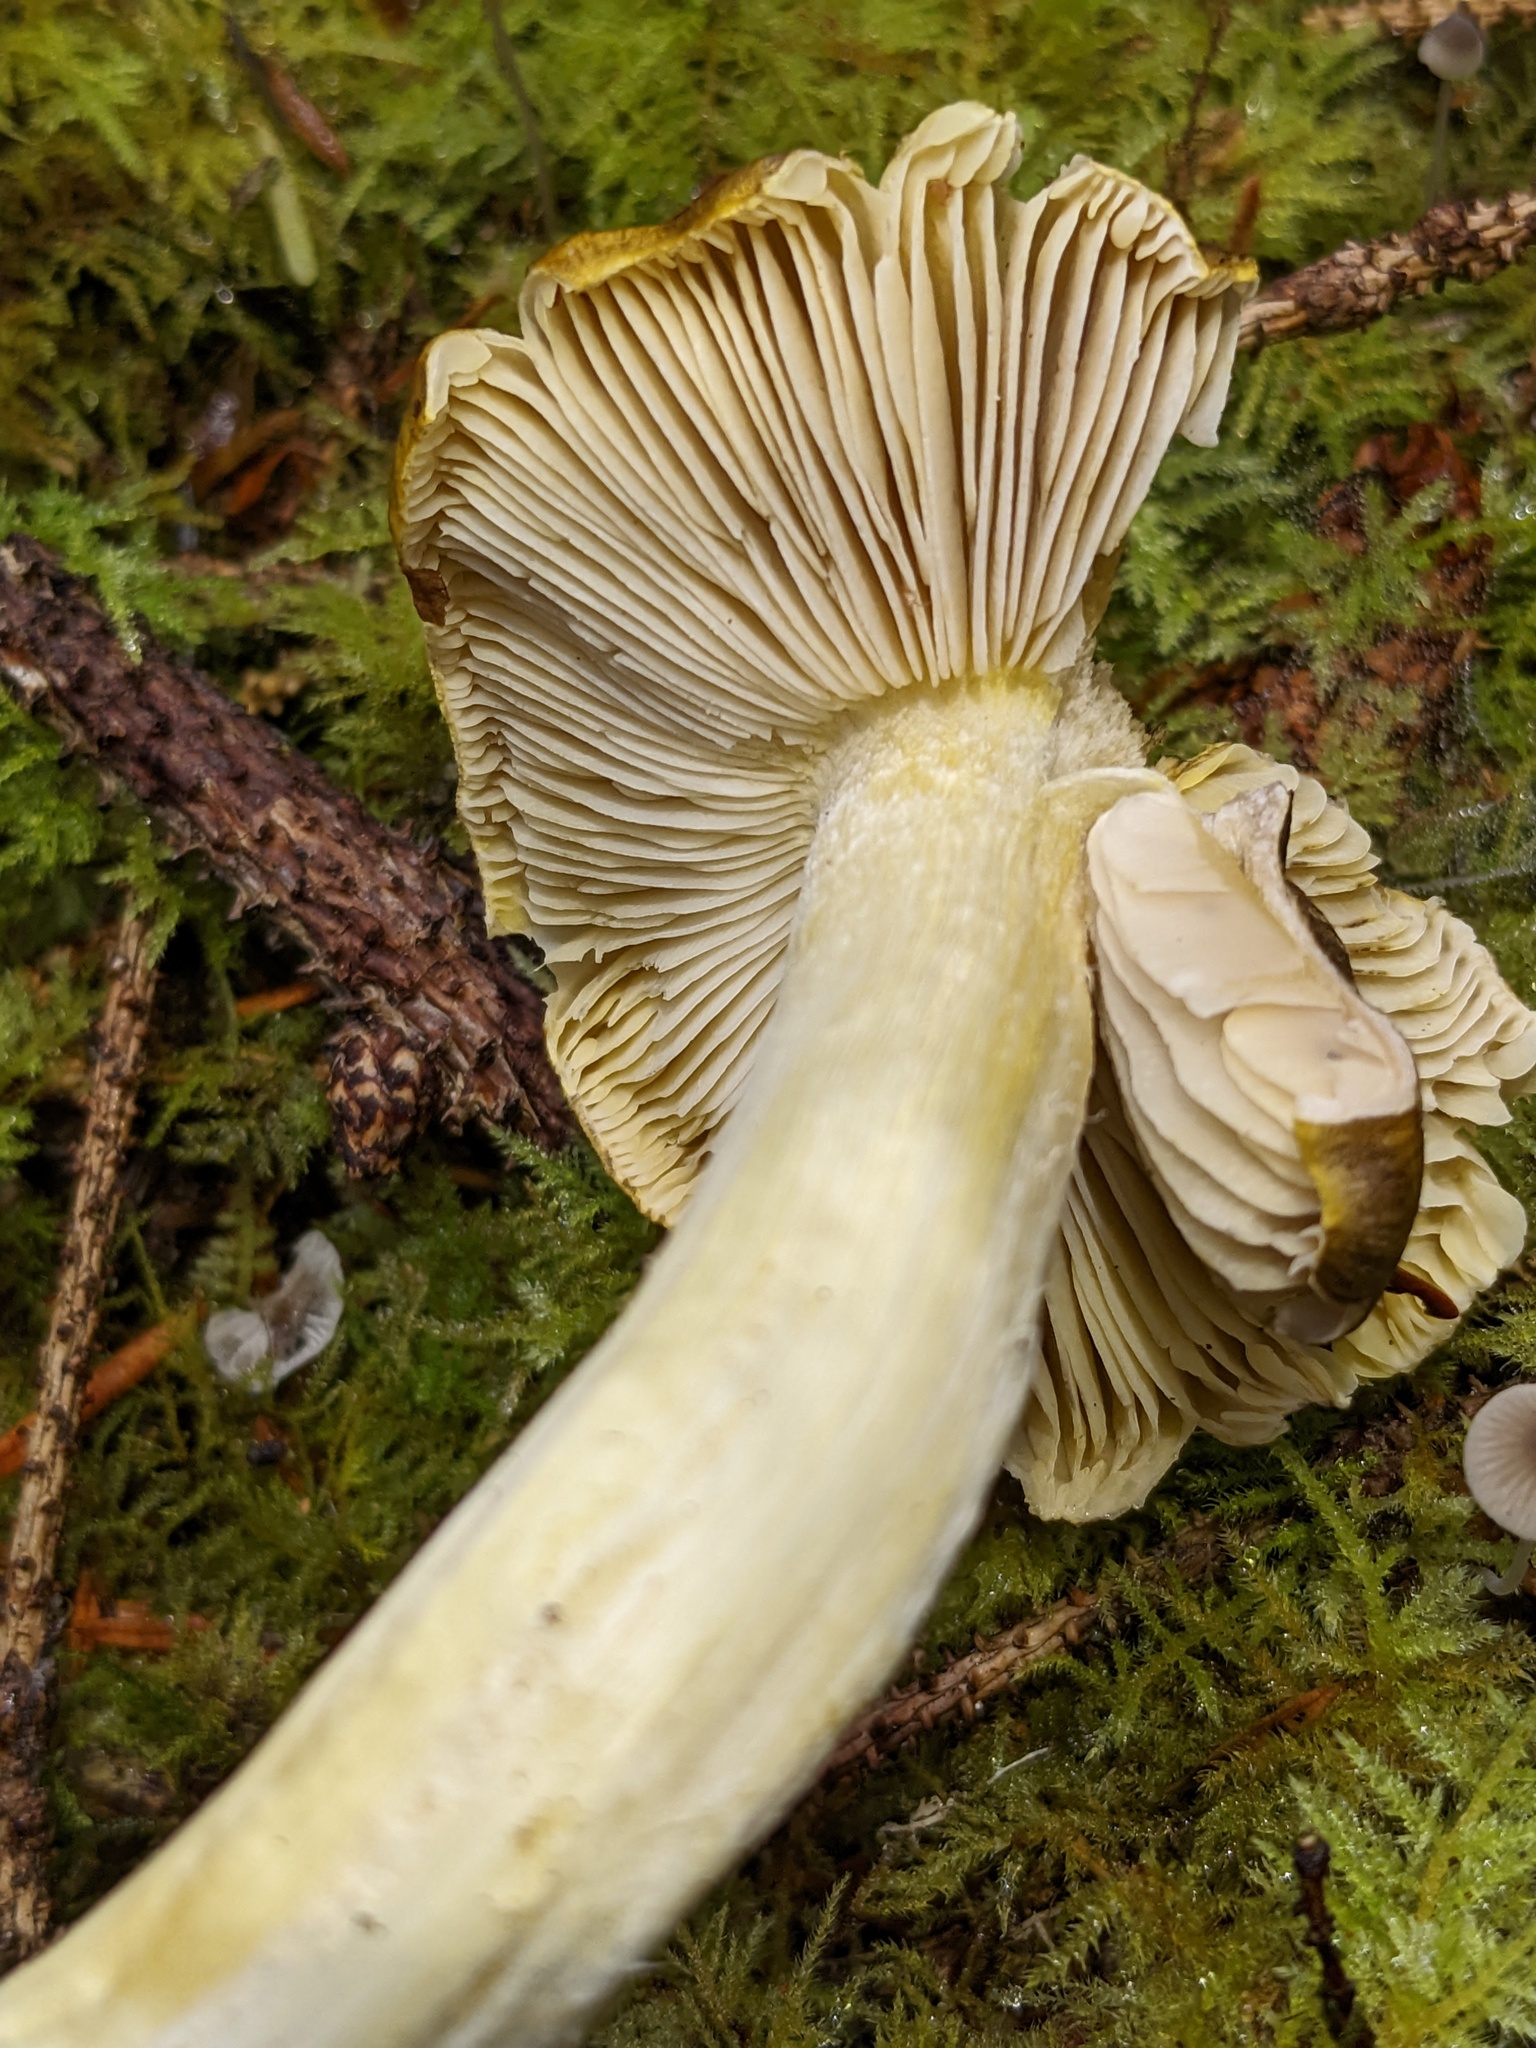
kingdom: Fungi
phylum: Basidiomycota
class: Agaricomycetes
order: Agaricales
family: Tricholomataceae
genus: Tricholoma
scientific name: Tricholoma subsejunctum
